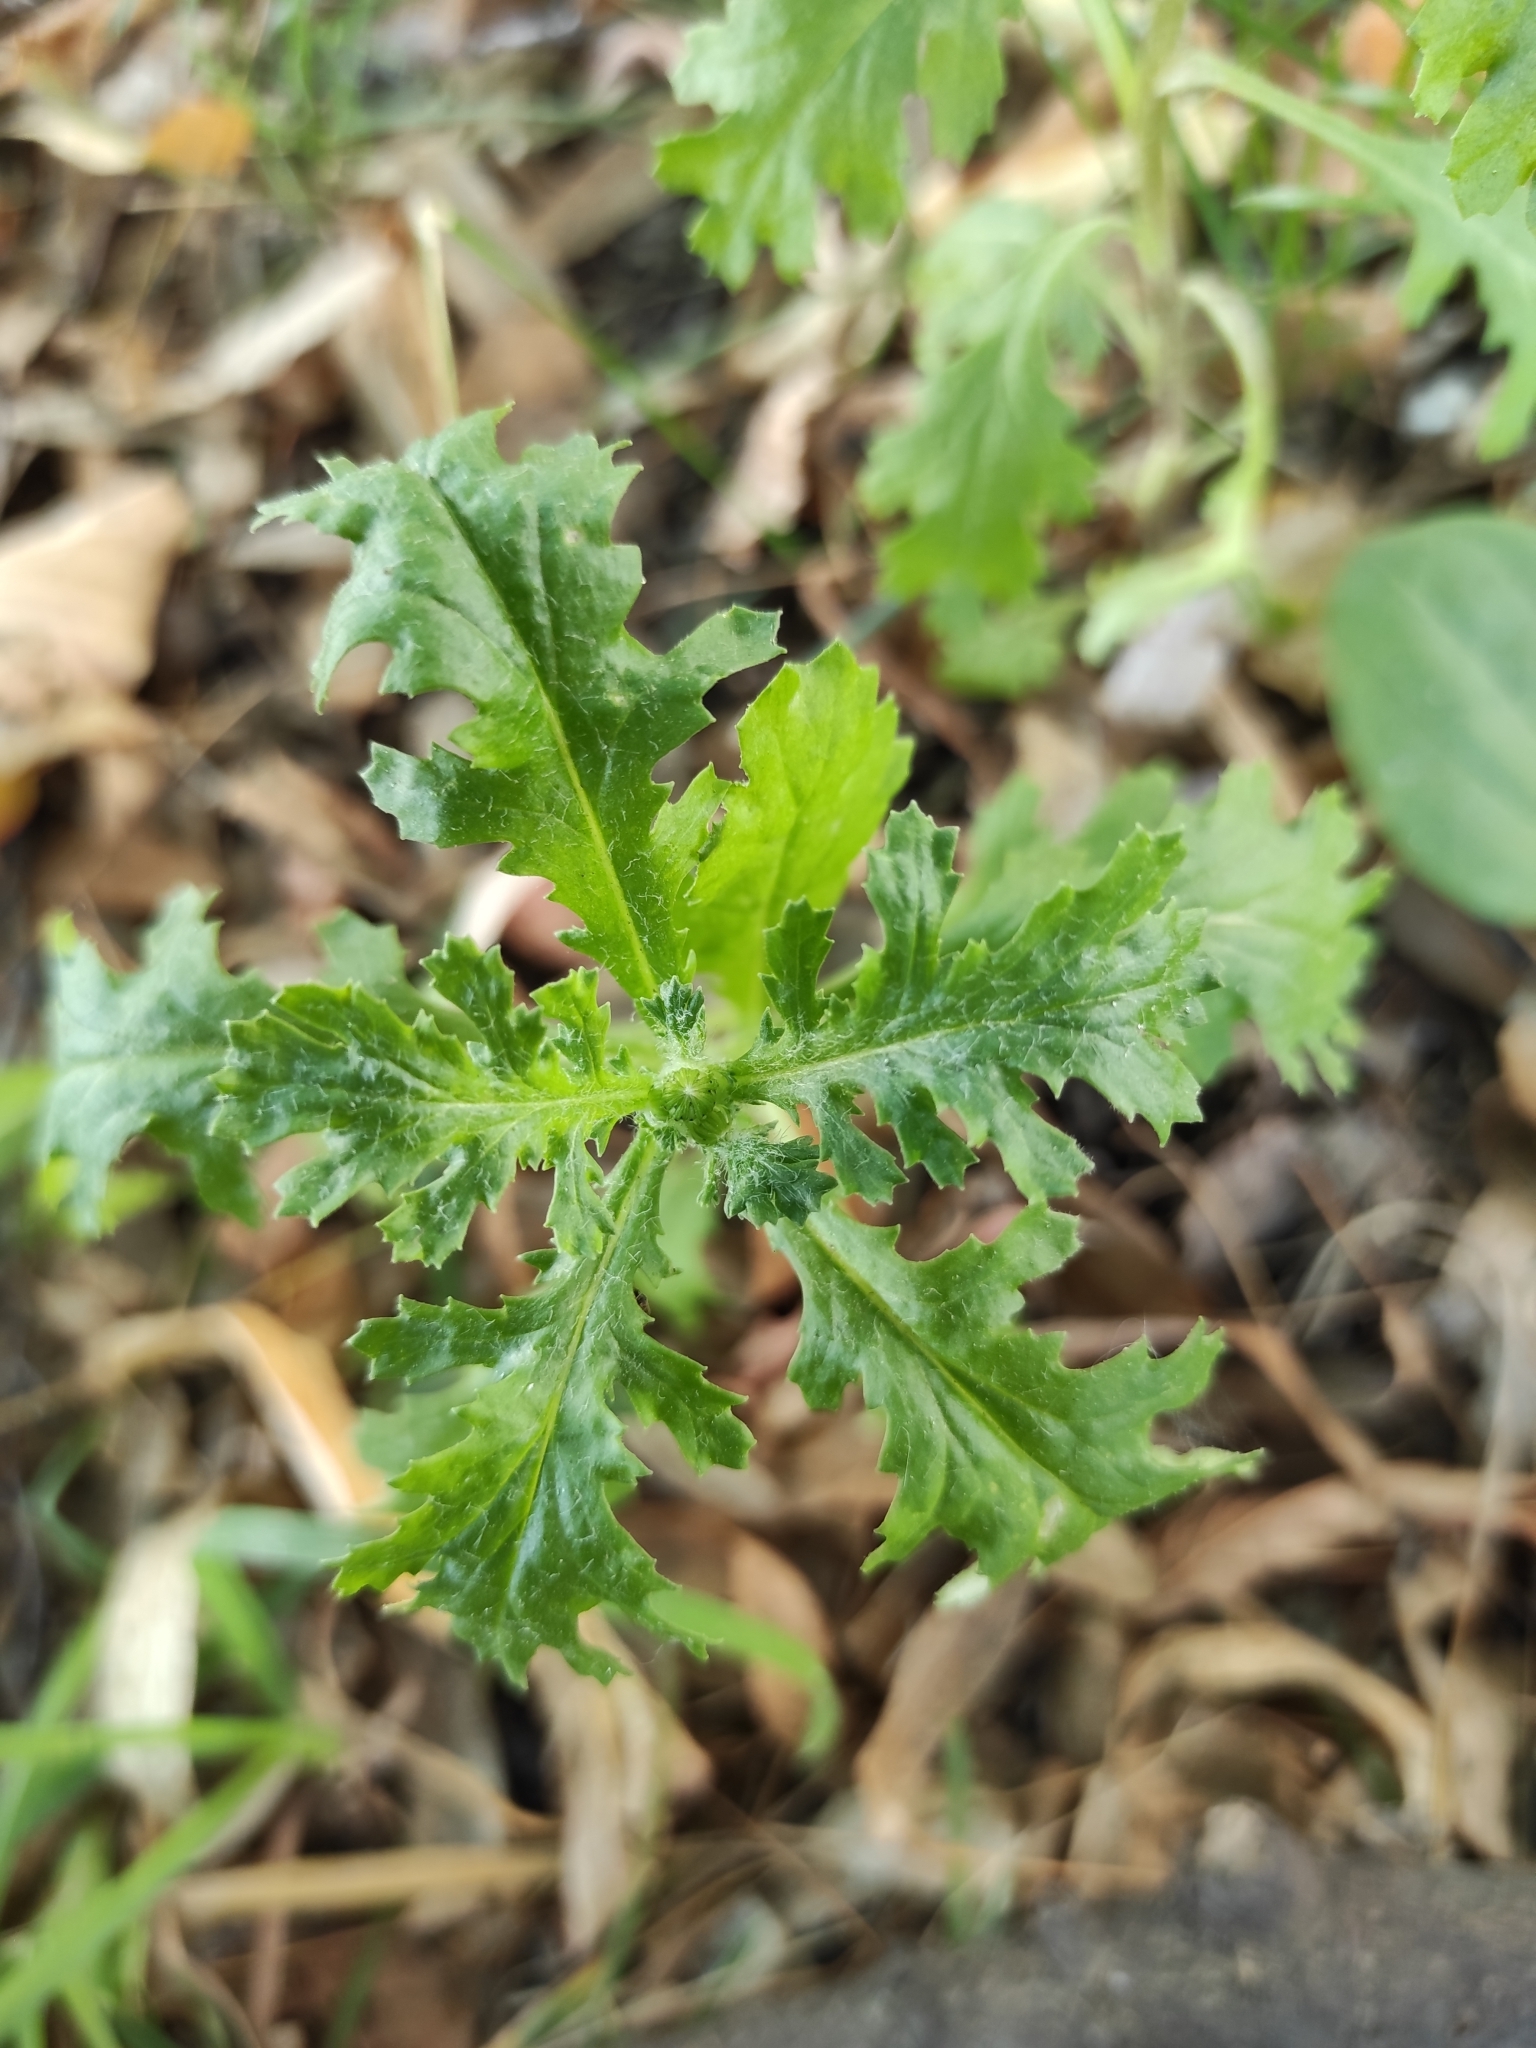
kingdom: Plantae
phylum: Tracheophyta
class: Magnoliopsida
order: Asterales
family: Asteraceae
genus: Senecio
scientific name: Senecio vulgaris
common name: Old-man-in-the-spring
